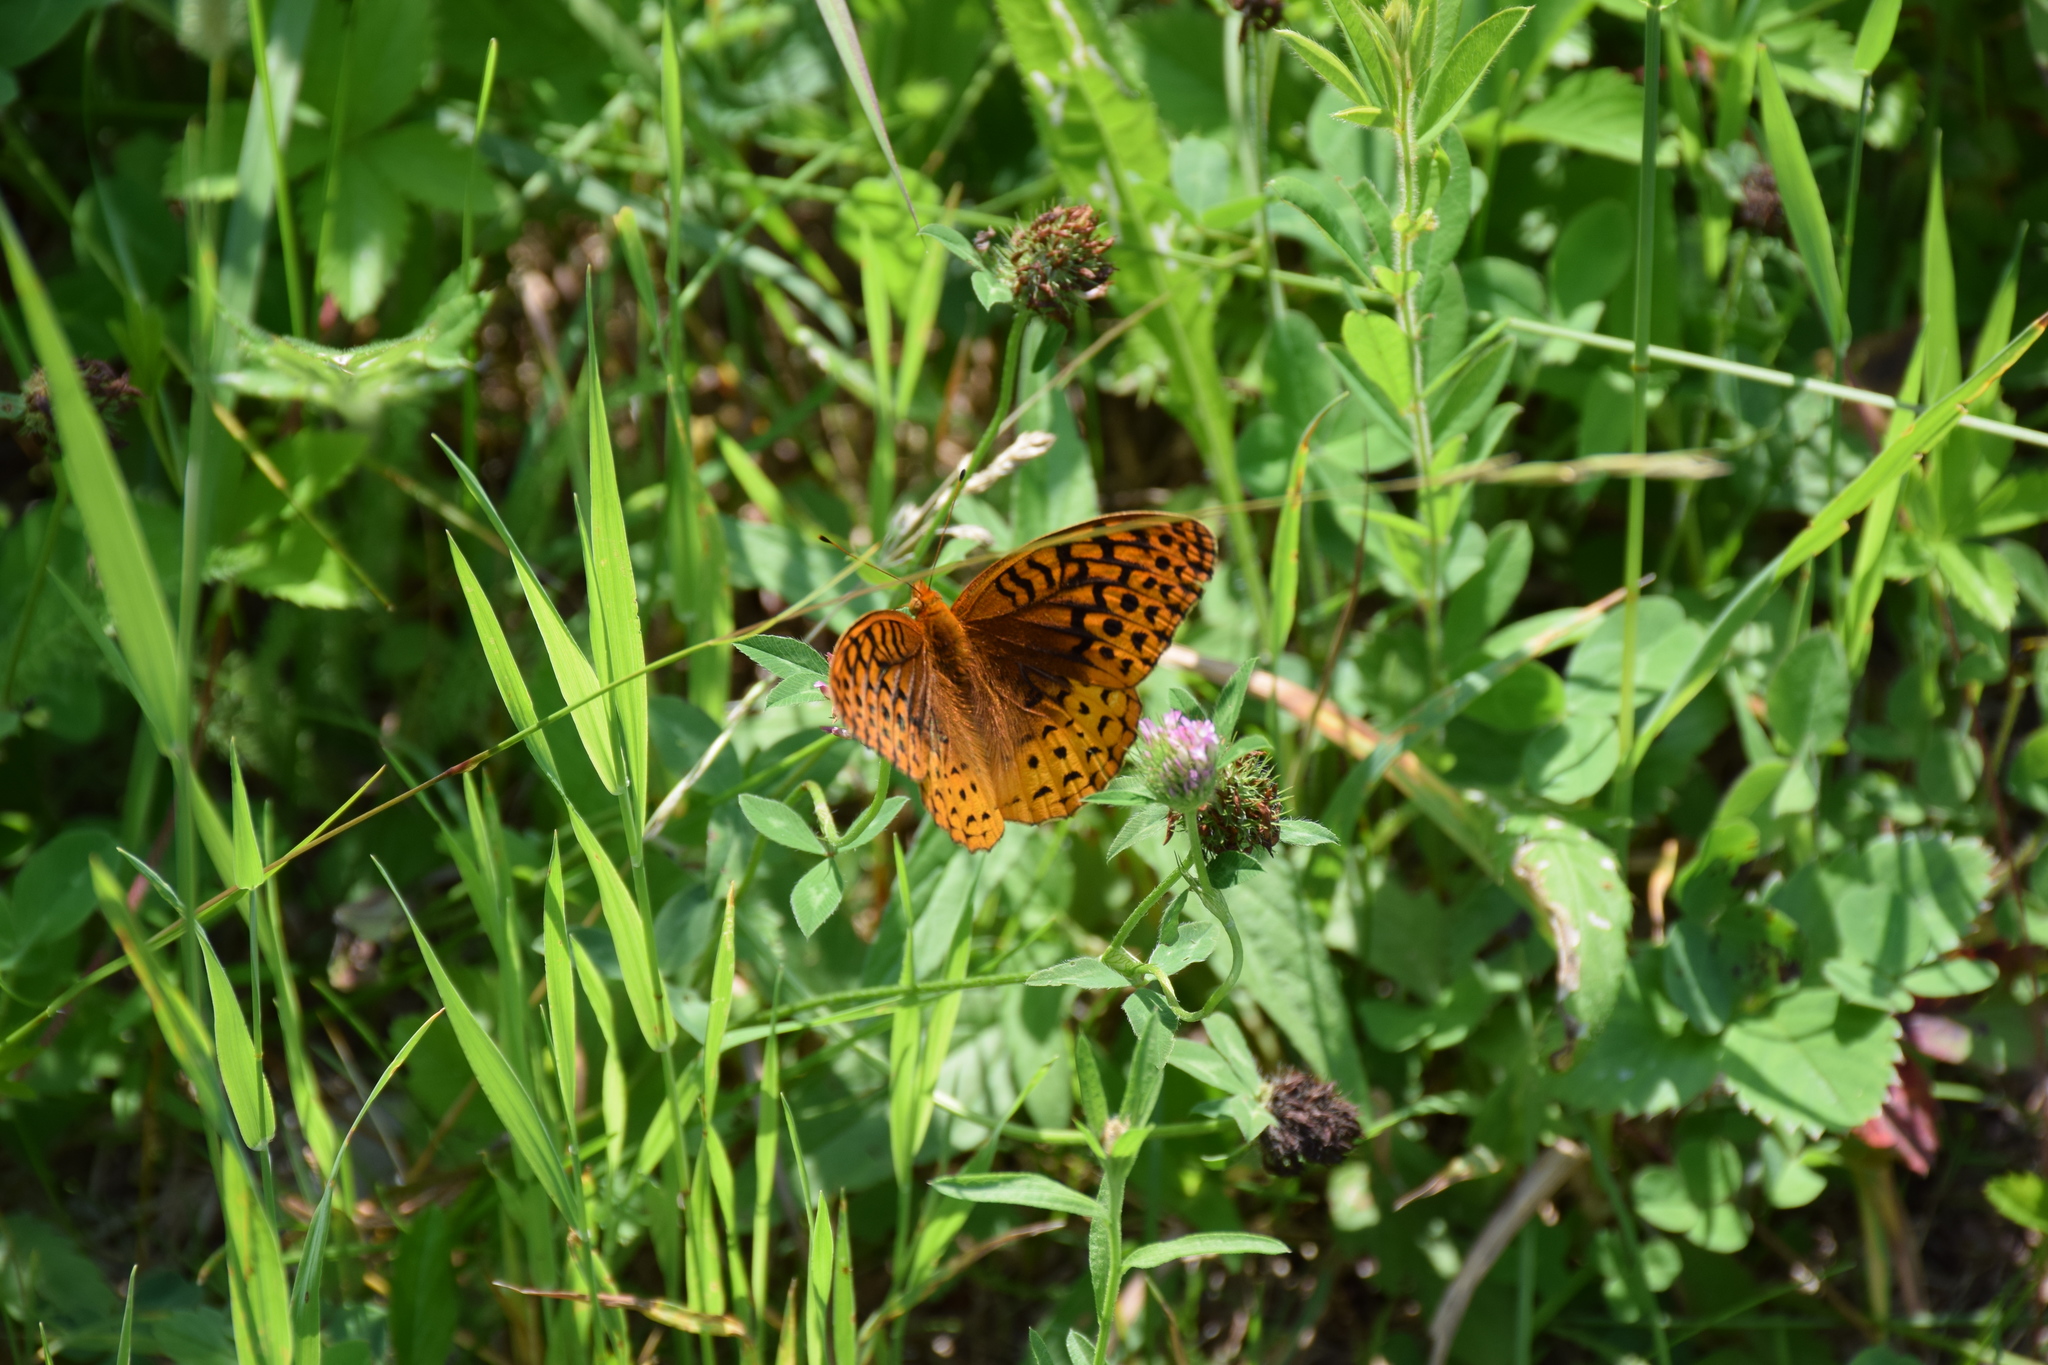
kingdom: Animalia
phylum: Arthropoda
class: Insecta
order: Lepidoptera
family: Nymphalidae
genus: Speyeria
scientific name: Speyeria cybele
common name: Great spangled fritillary
